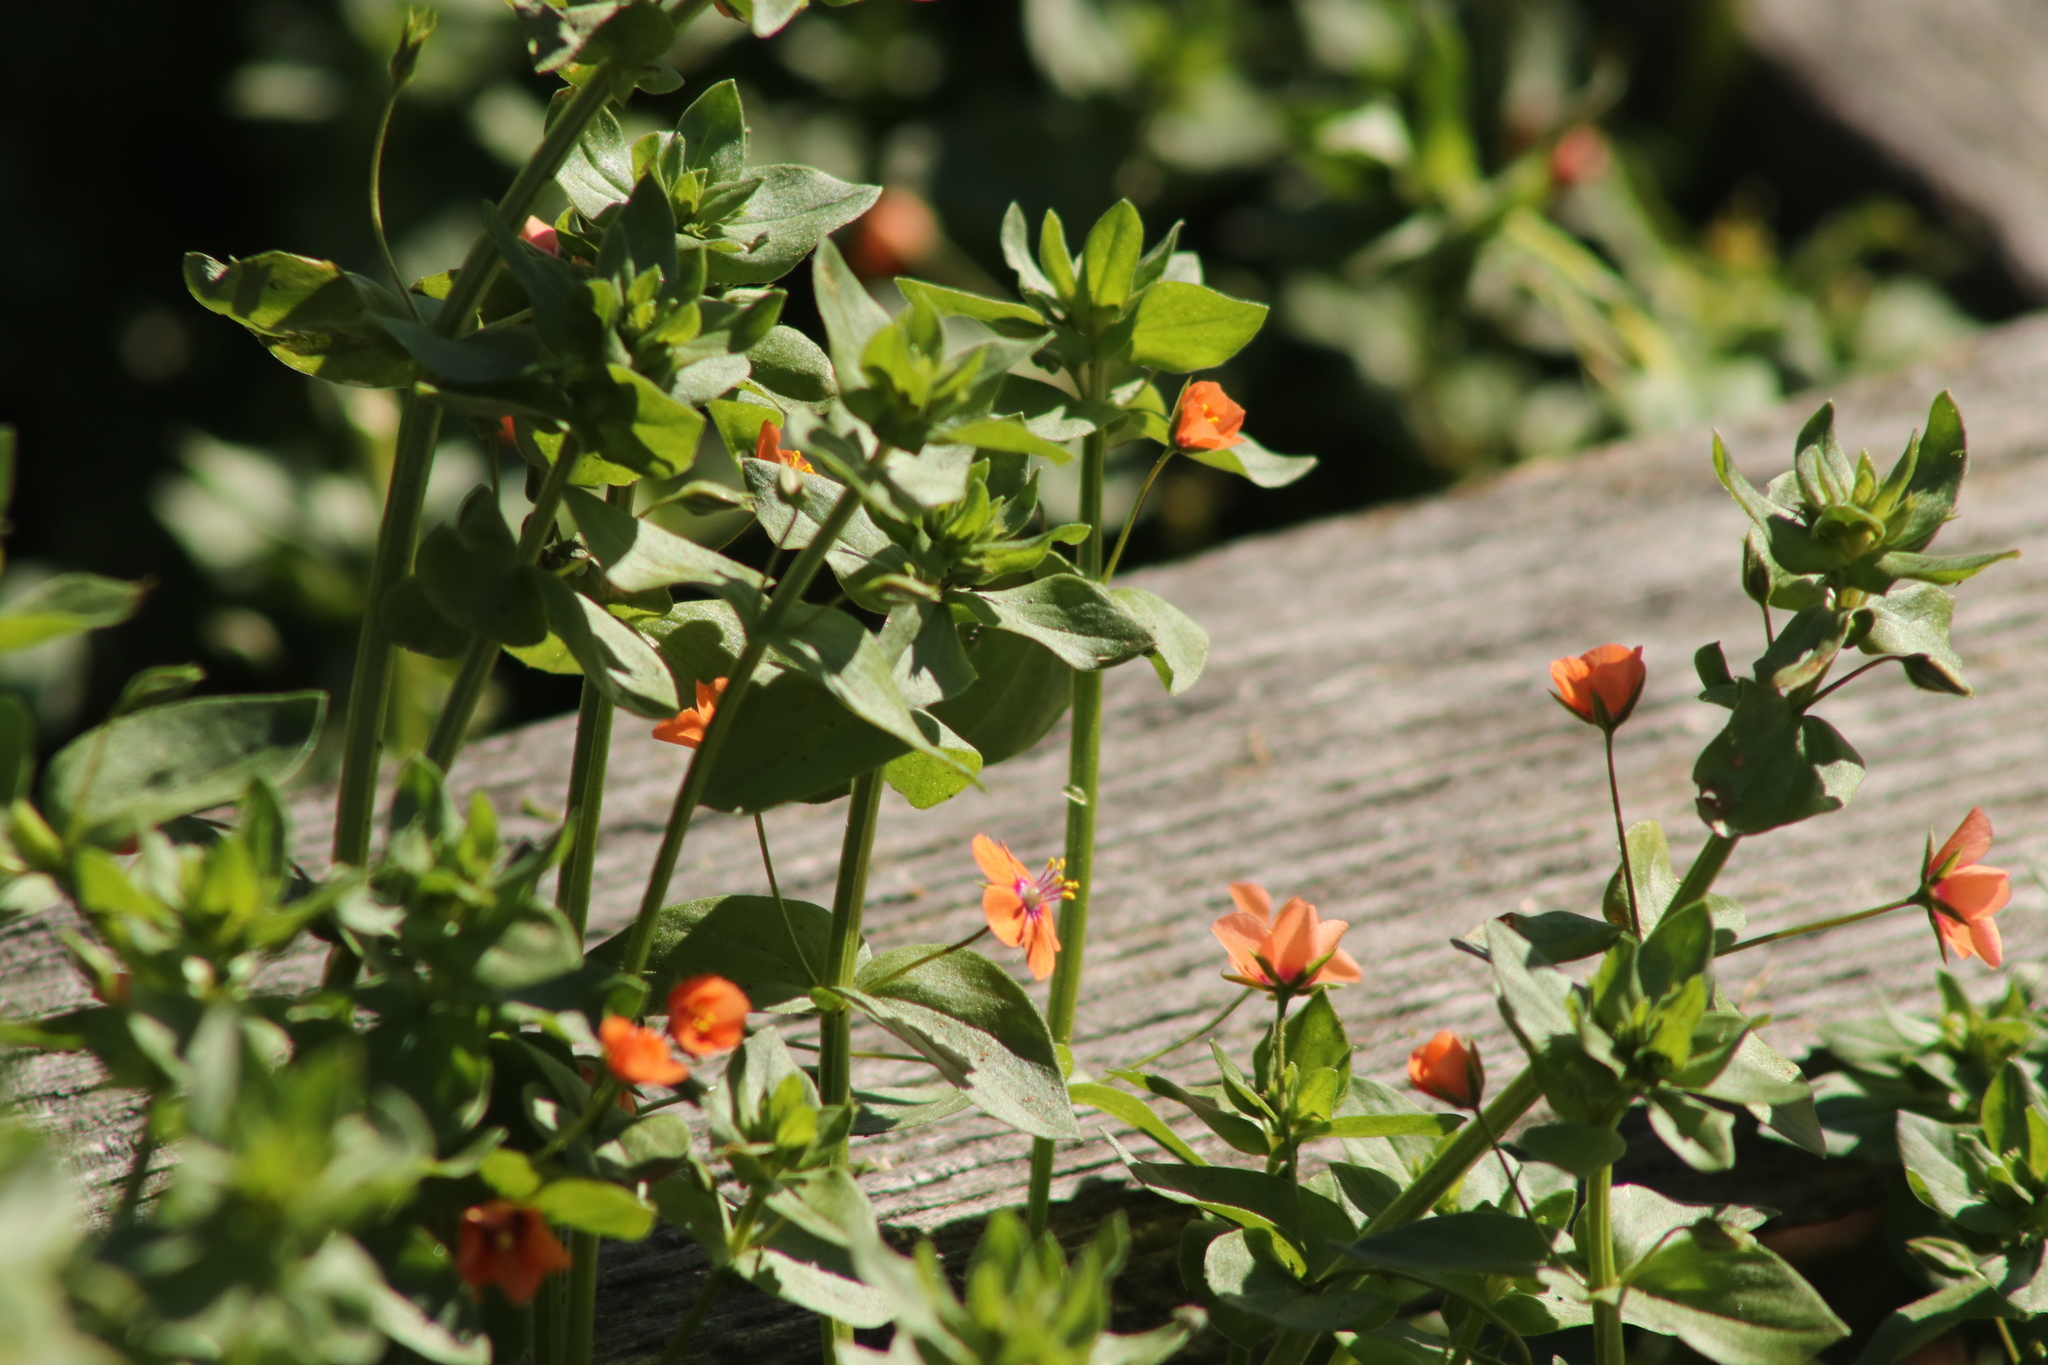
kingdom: Plantae
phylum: Tracheophyta
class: Magnoliopsida
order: Ericales
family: Primulaceae
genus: Lysimachia
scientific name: Lysimachia arvensis
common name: Scarlet pimpernel
